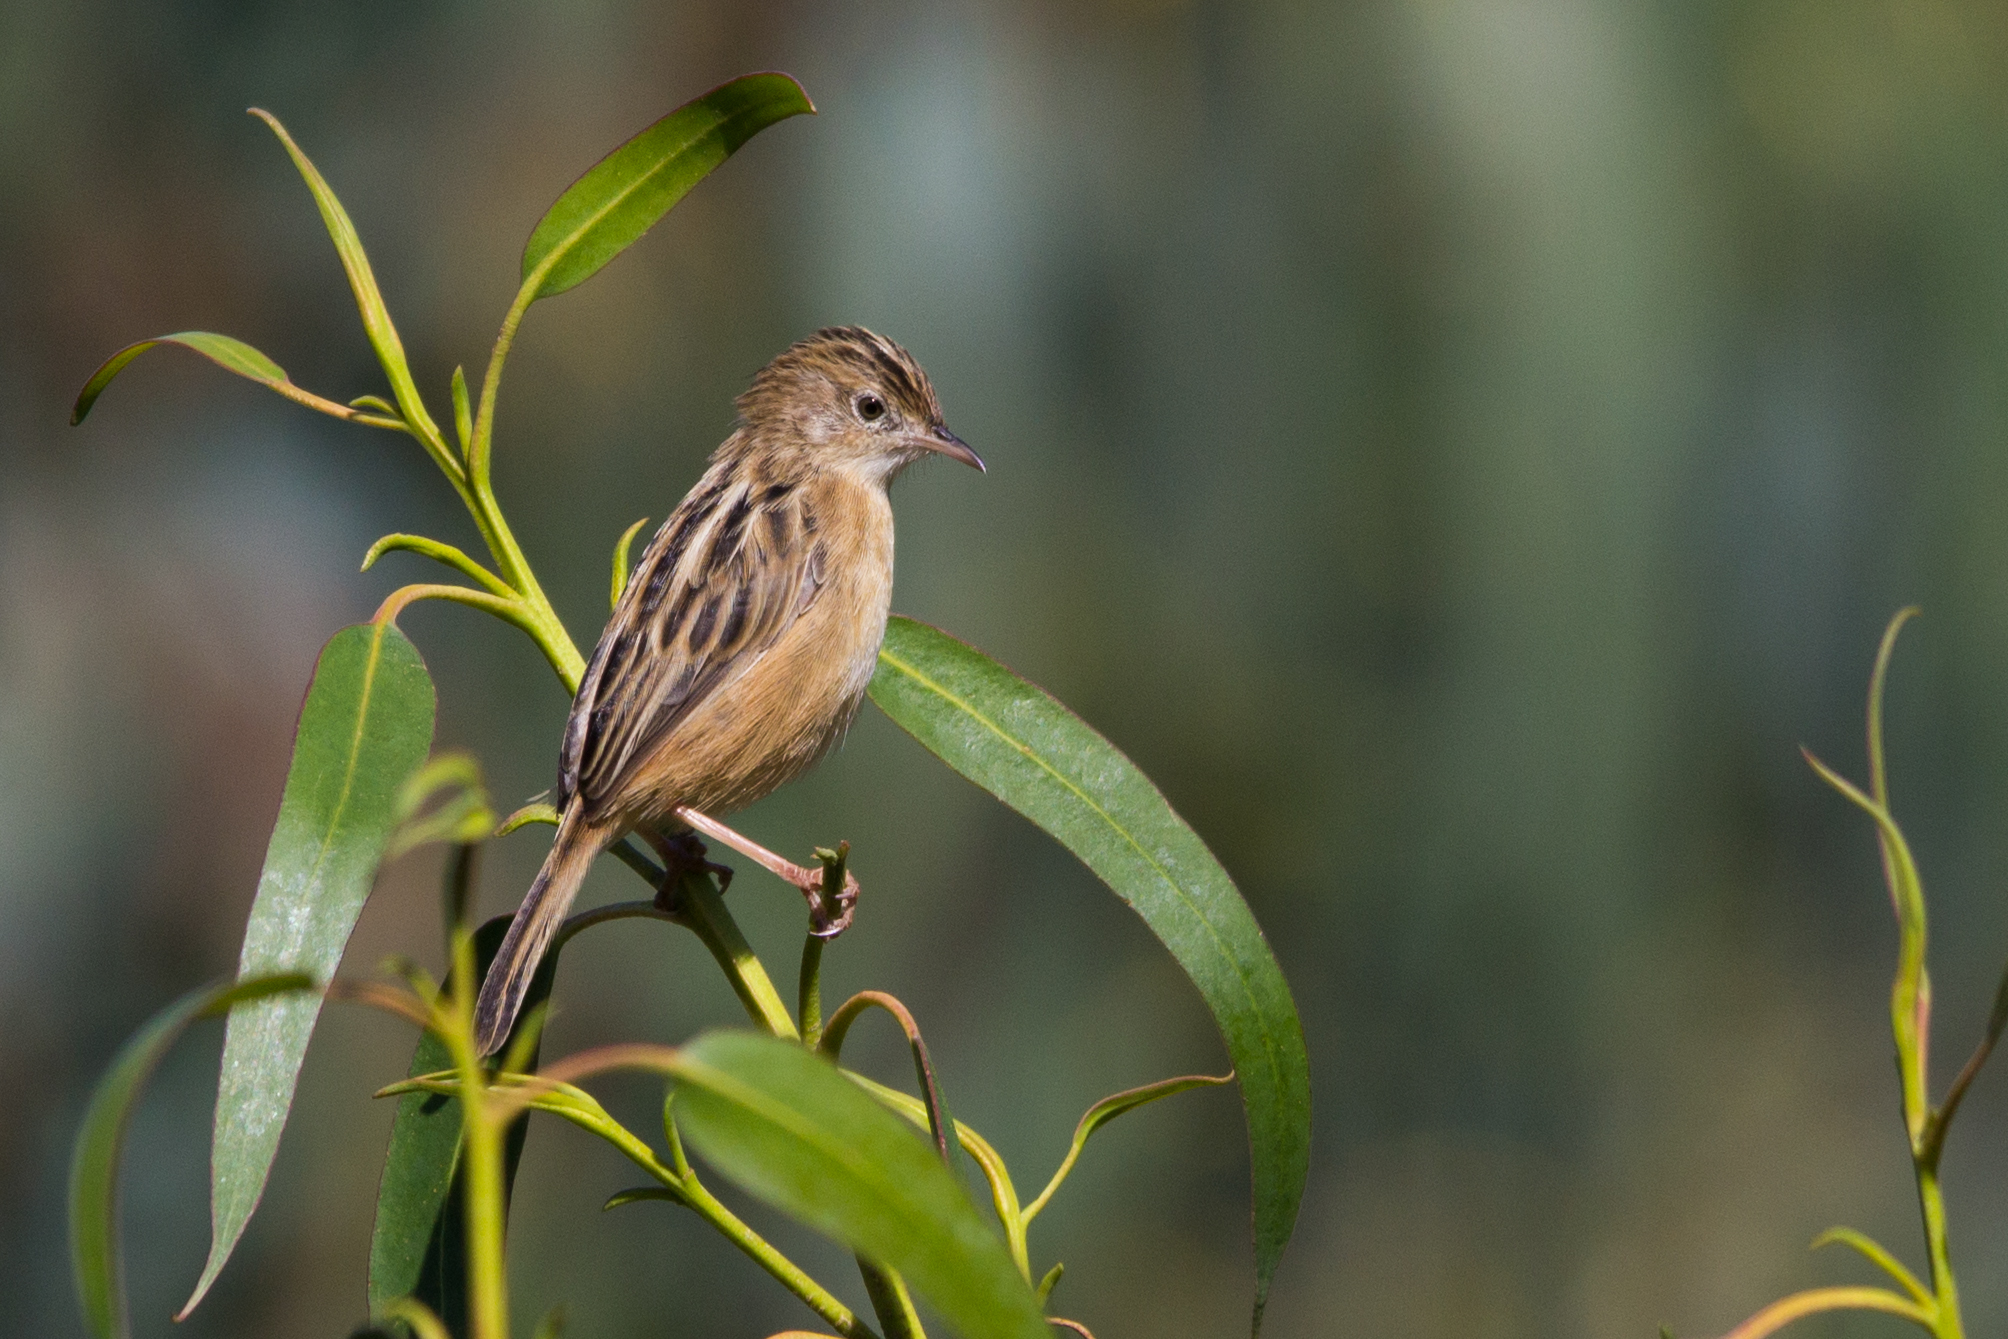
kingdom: Animalia
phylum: Chordata
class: Aves
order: Passeriformes
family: Cisticolidae
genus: Cisticola
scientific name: Cisticola juncidis
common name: Zitting cisticola
